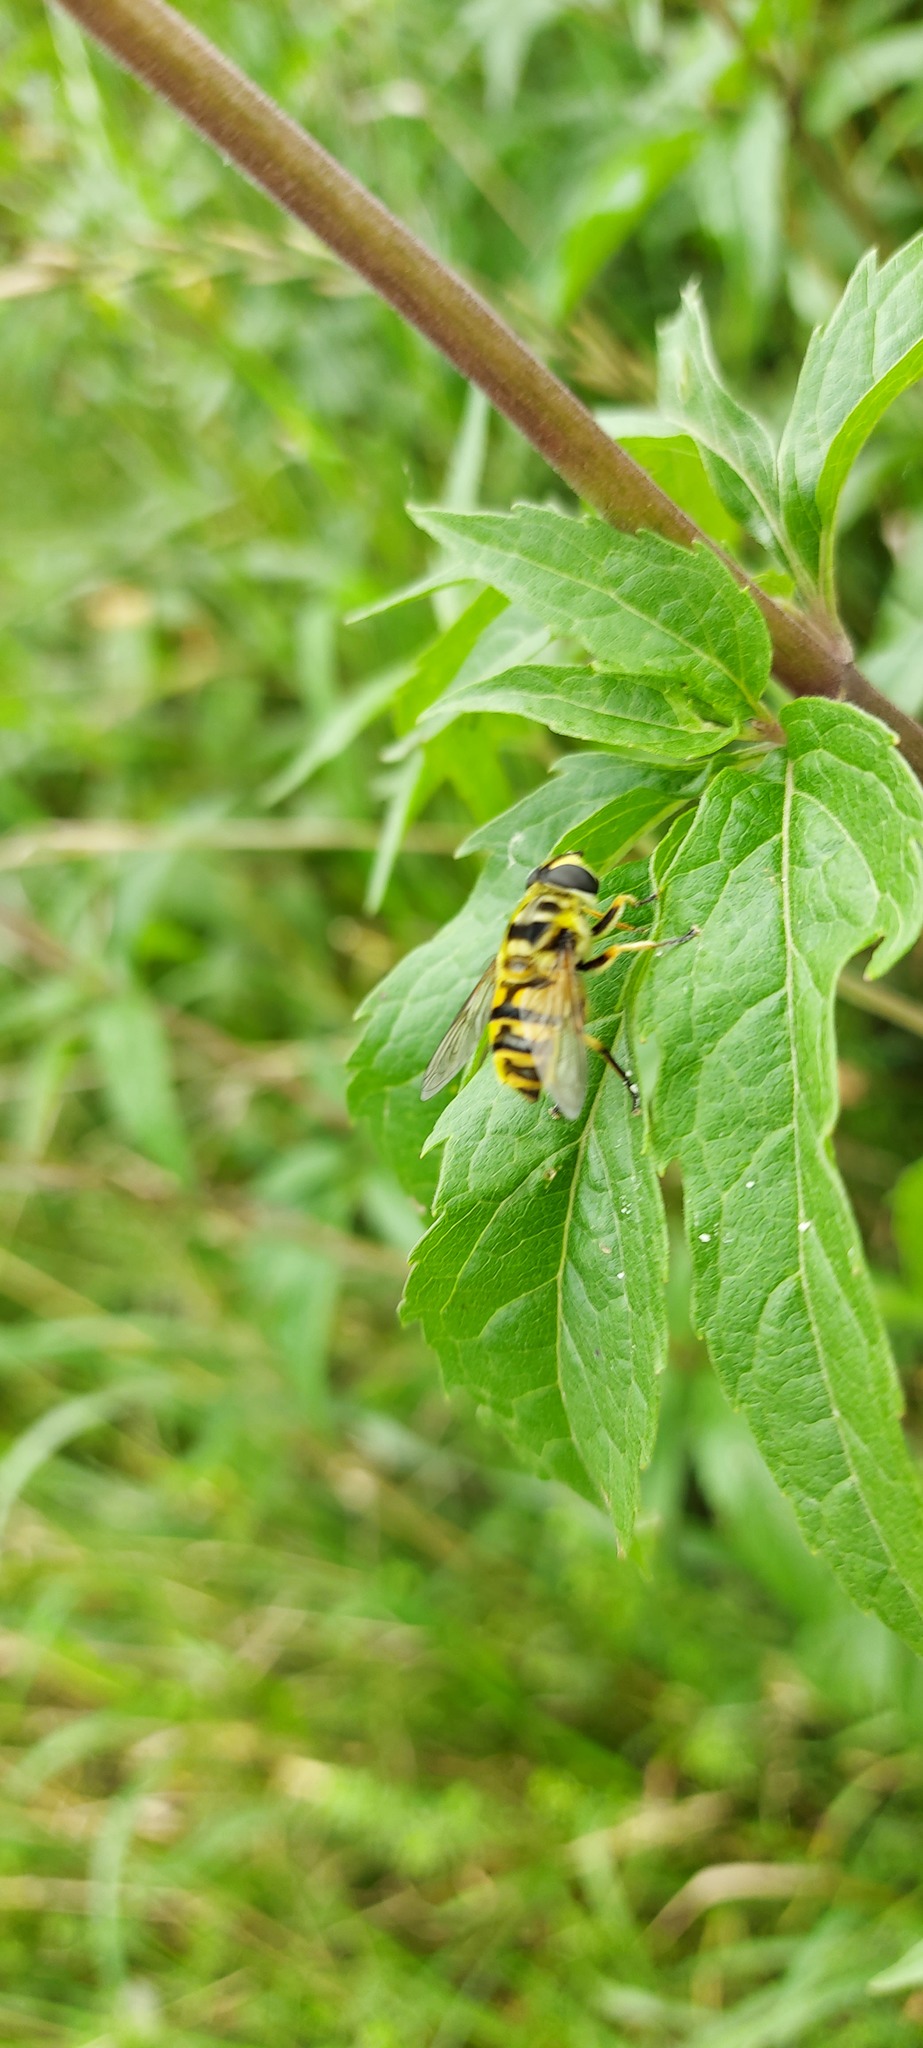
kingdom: Animalia
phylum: Arthropoda
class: Insecta
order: Diptera
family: Syrphidae
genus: Myathropa
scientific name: Myathropa florea
